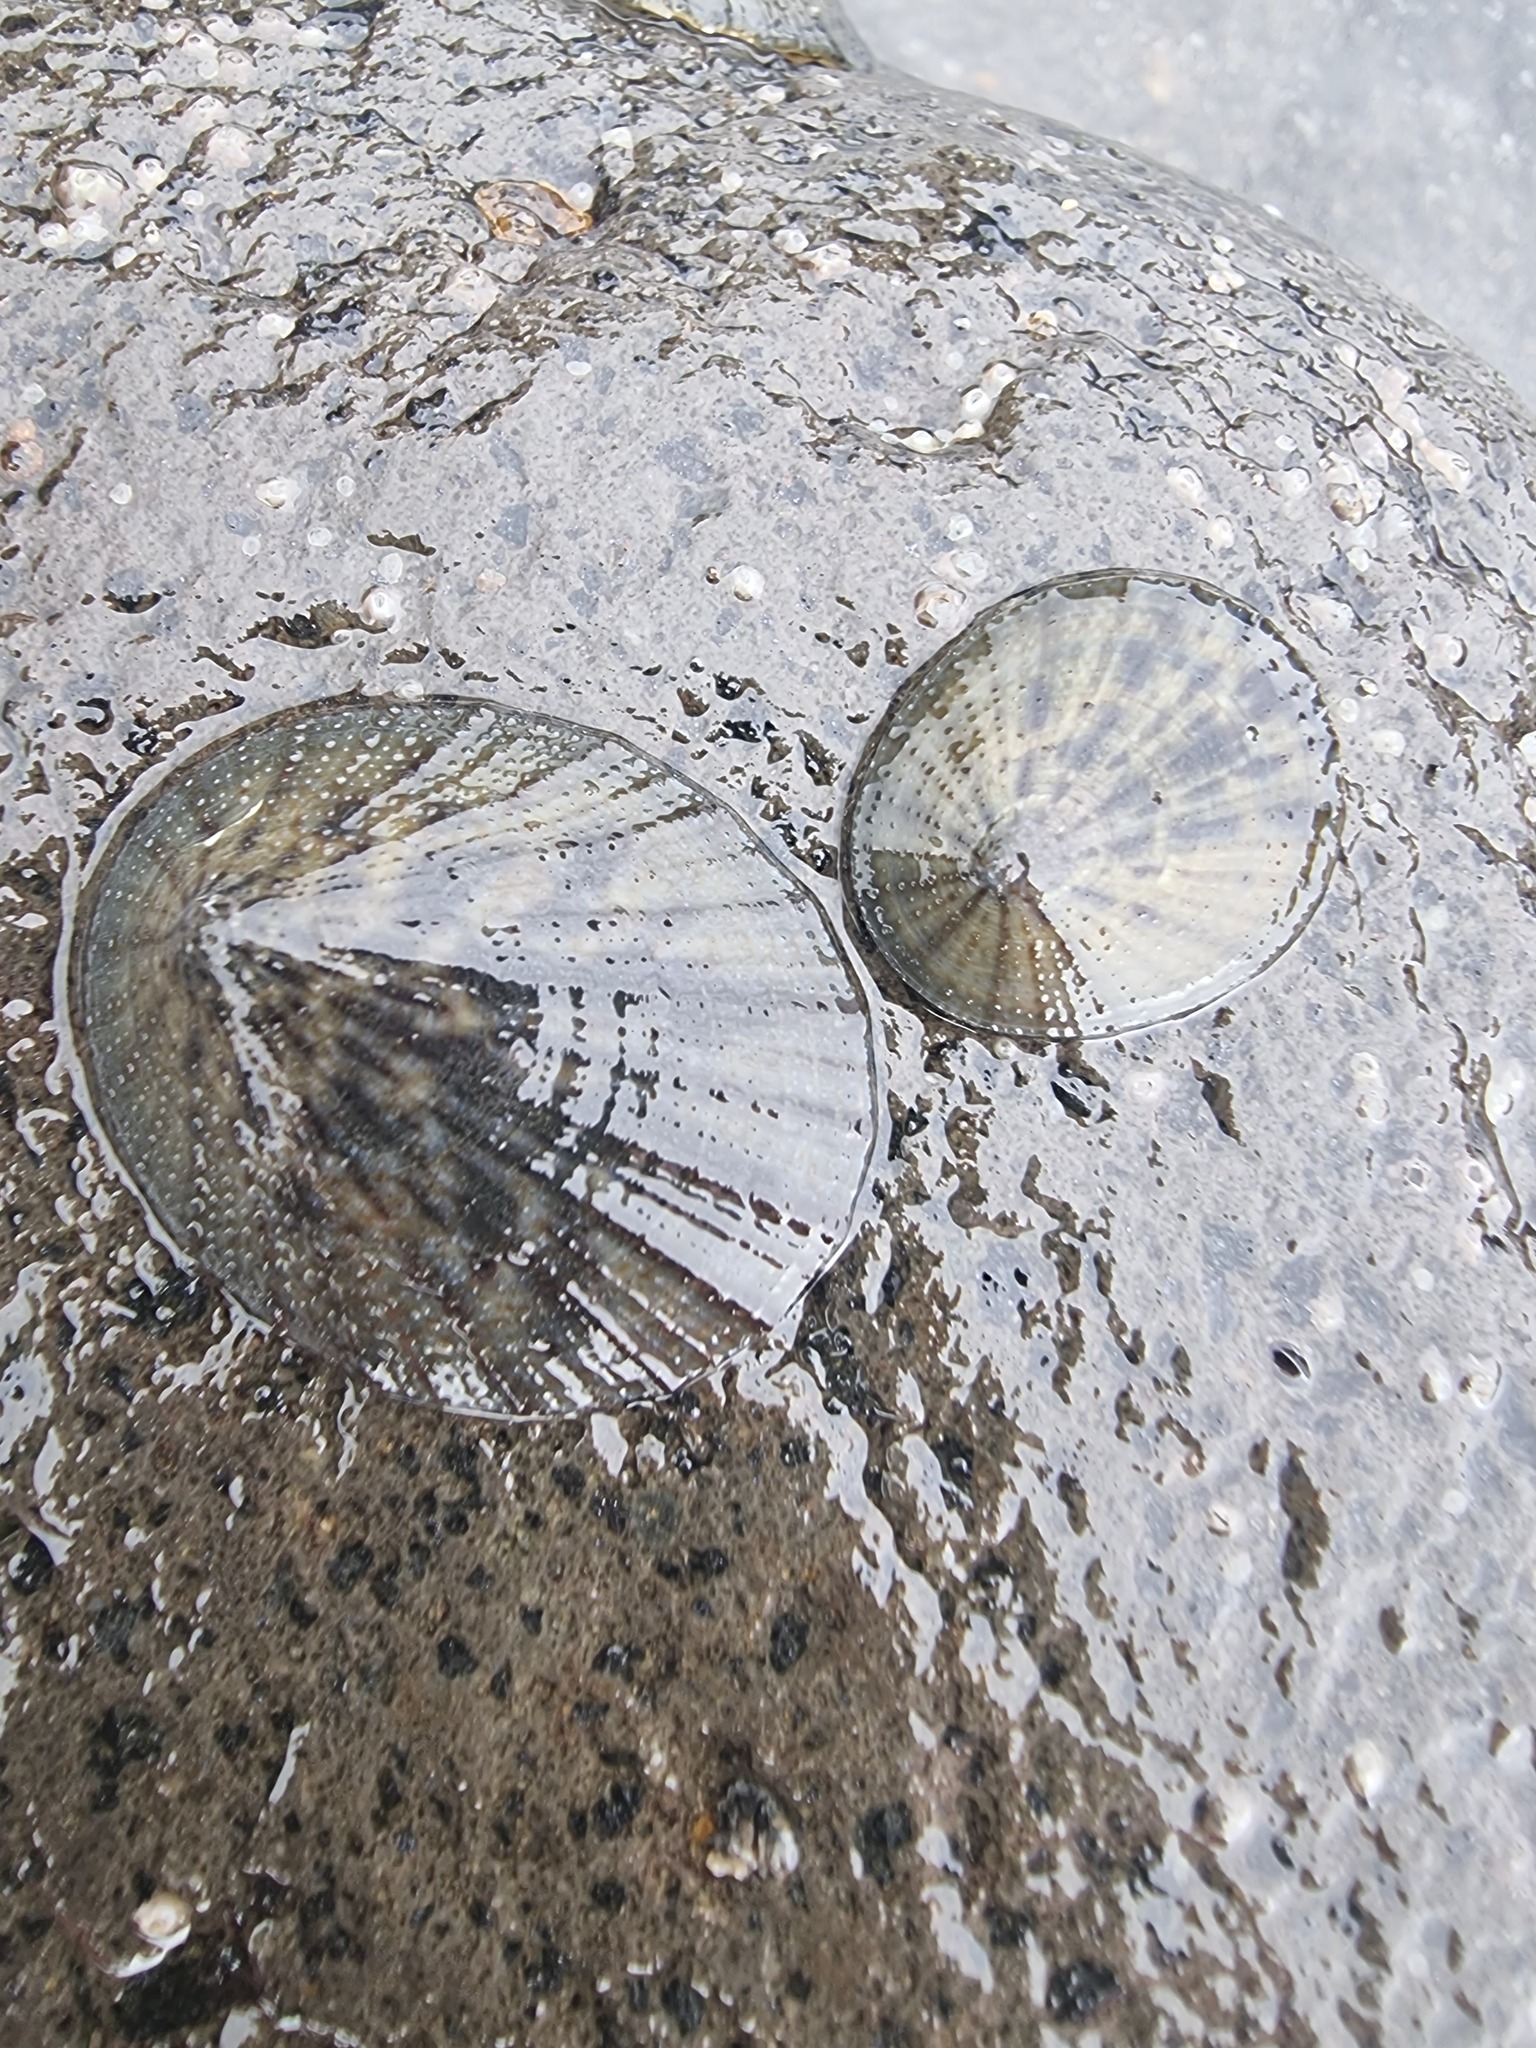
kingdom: Animalia
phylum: Mollusca
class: Gastropoda
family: Nacellidae
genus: Cellana
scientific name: Cellana radians
